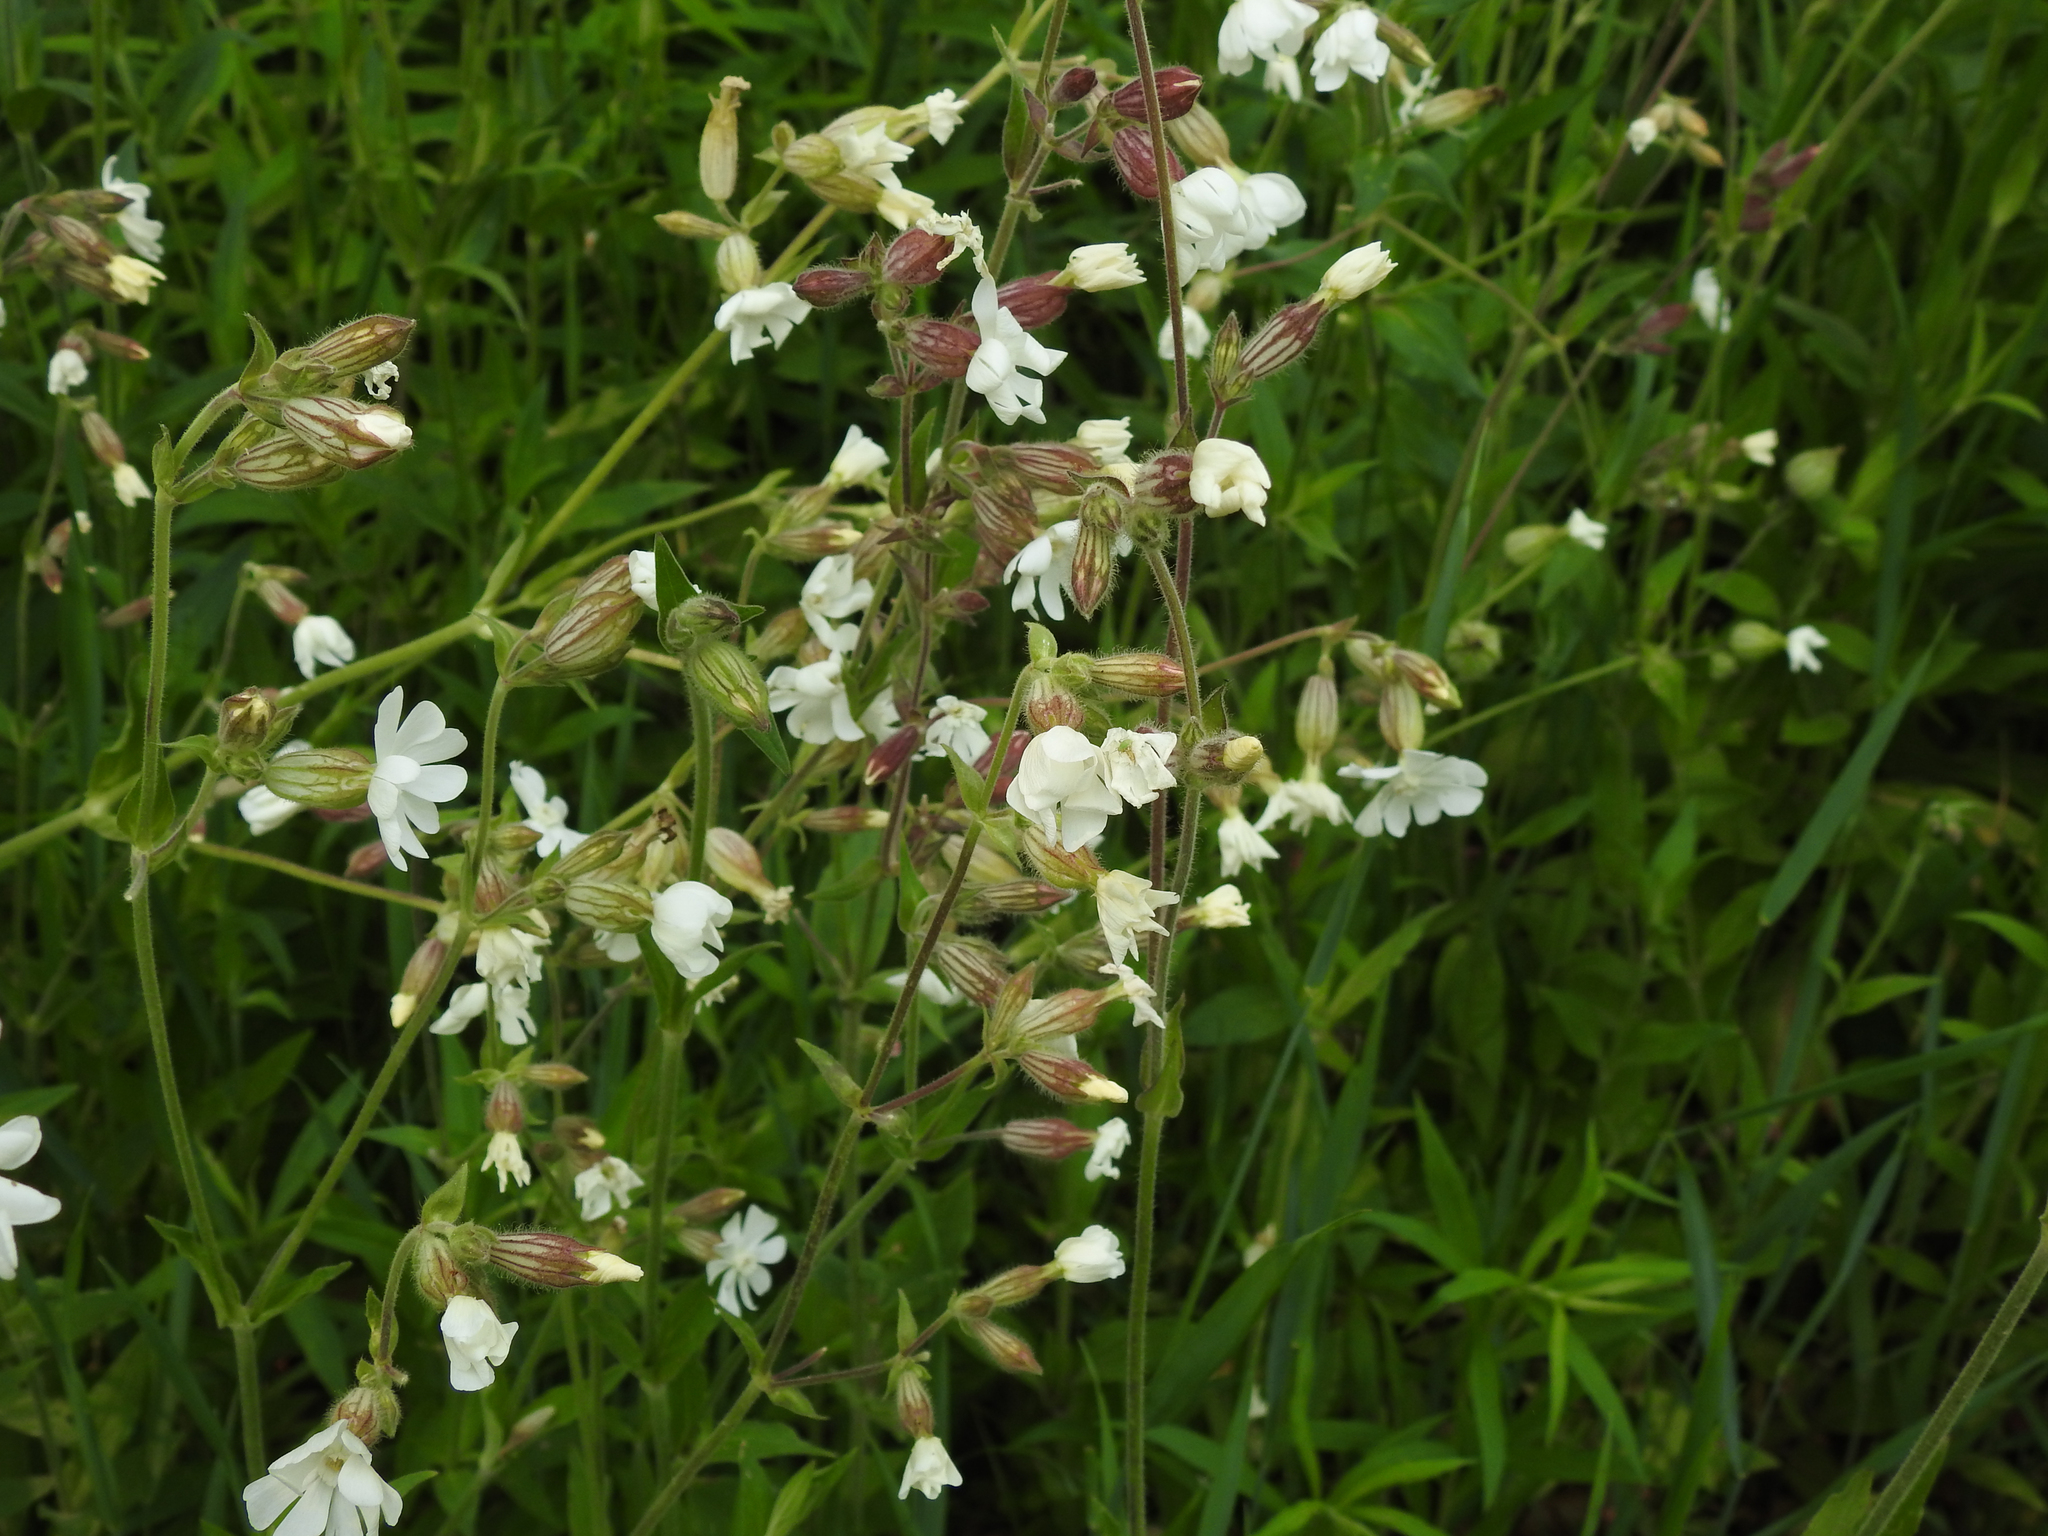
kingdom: Plantae
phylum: Tracheophyta
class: Magnoliopsida
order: Caryophyllales
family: Caryophyllaceae
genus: Silene
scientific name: Silene latifolia
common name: White campion
